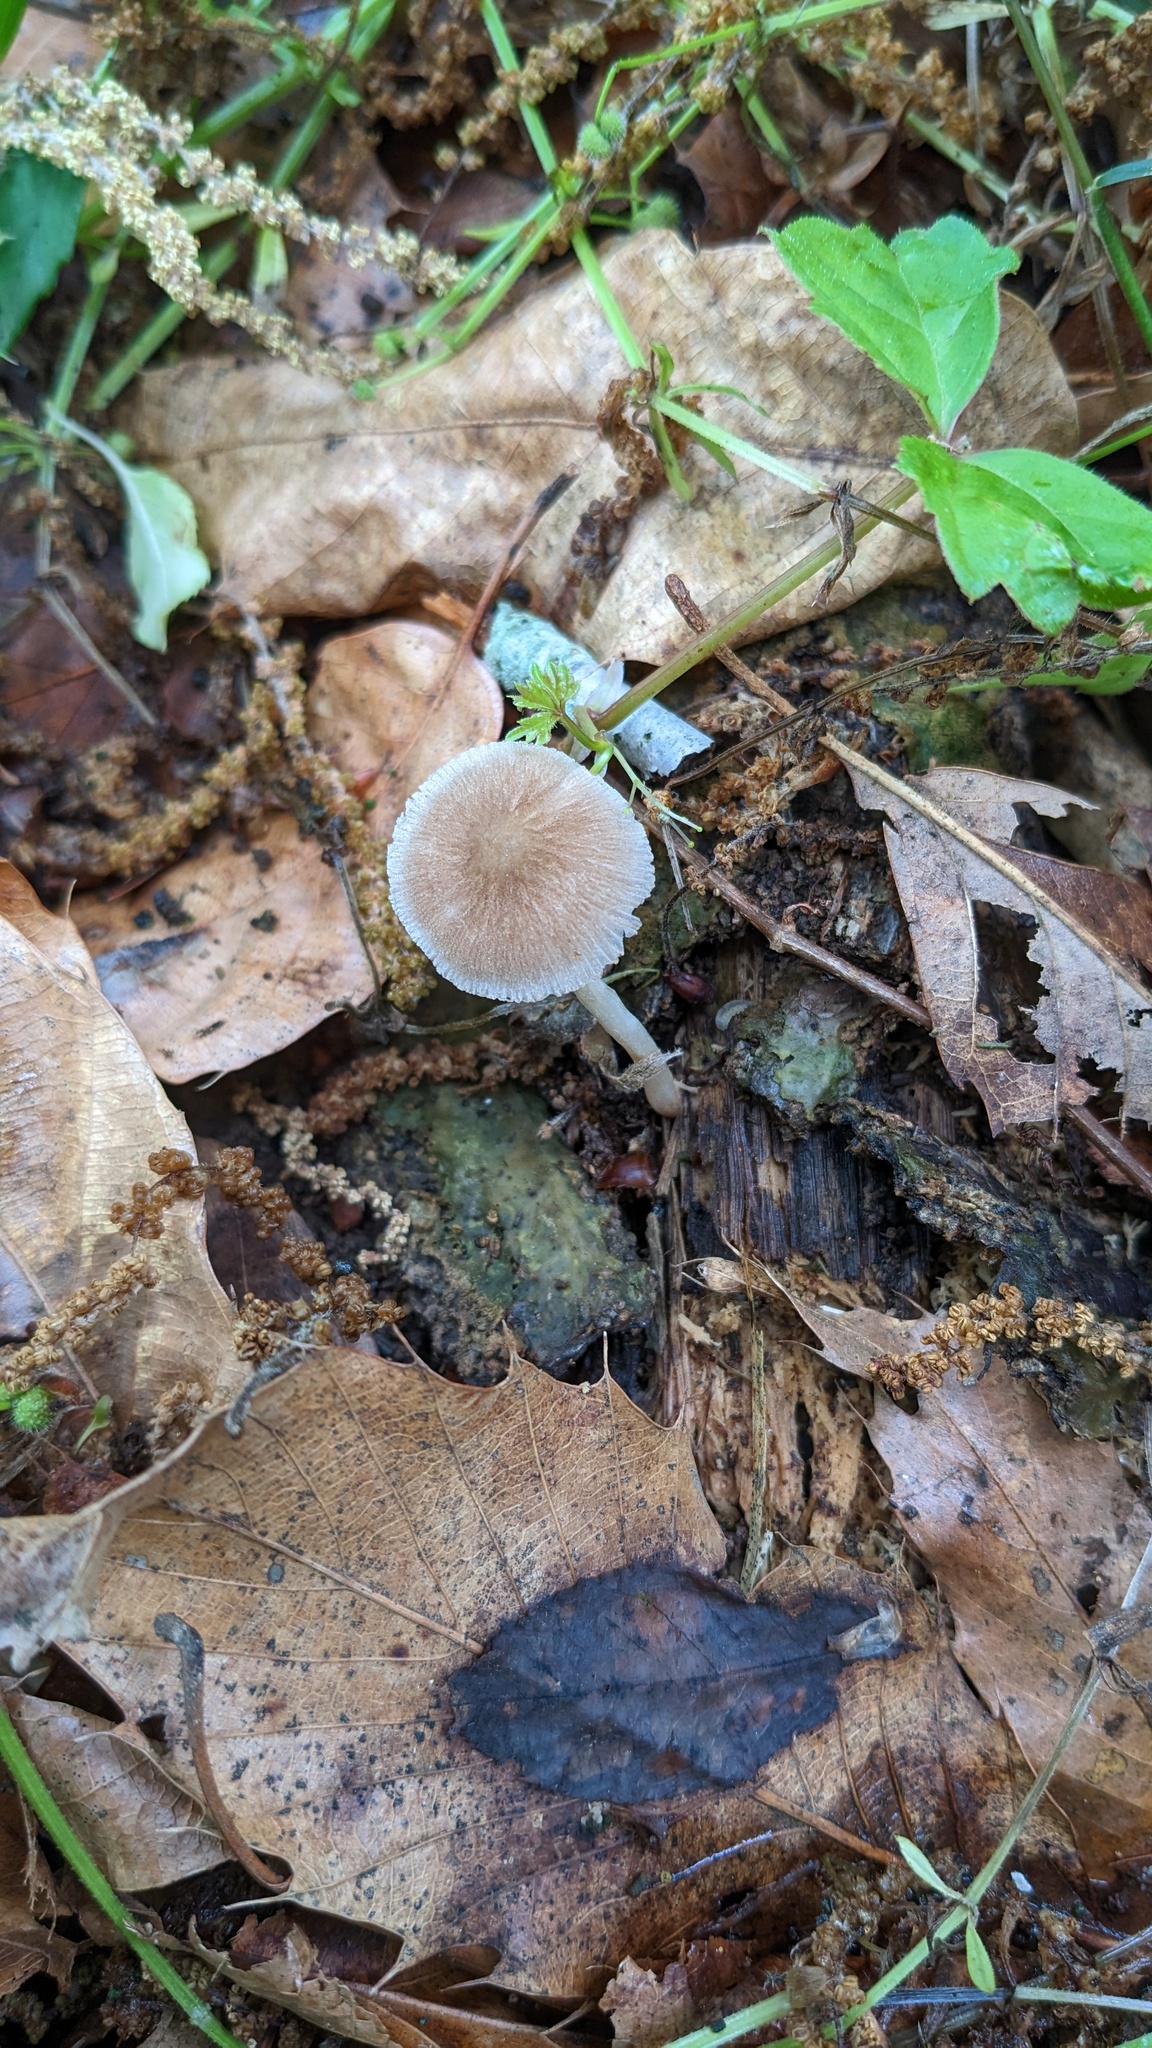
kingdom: Fungi
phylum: Basidiomycota
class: Agaricomycetes
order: Agaricales
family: Pluteaceae
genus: Pluteus
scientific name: Pluteus longistriatus
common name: Pleated pluteus
